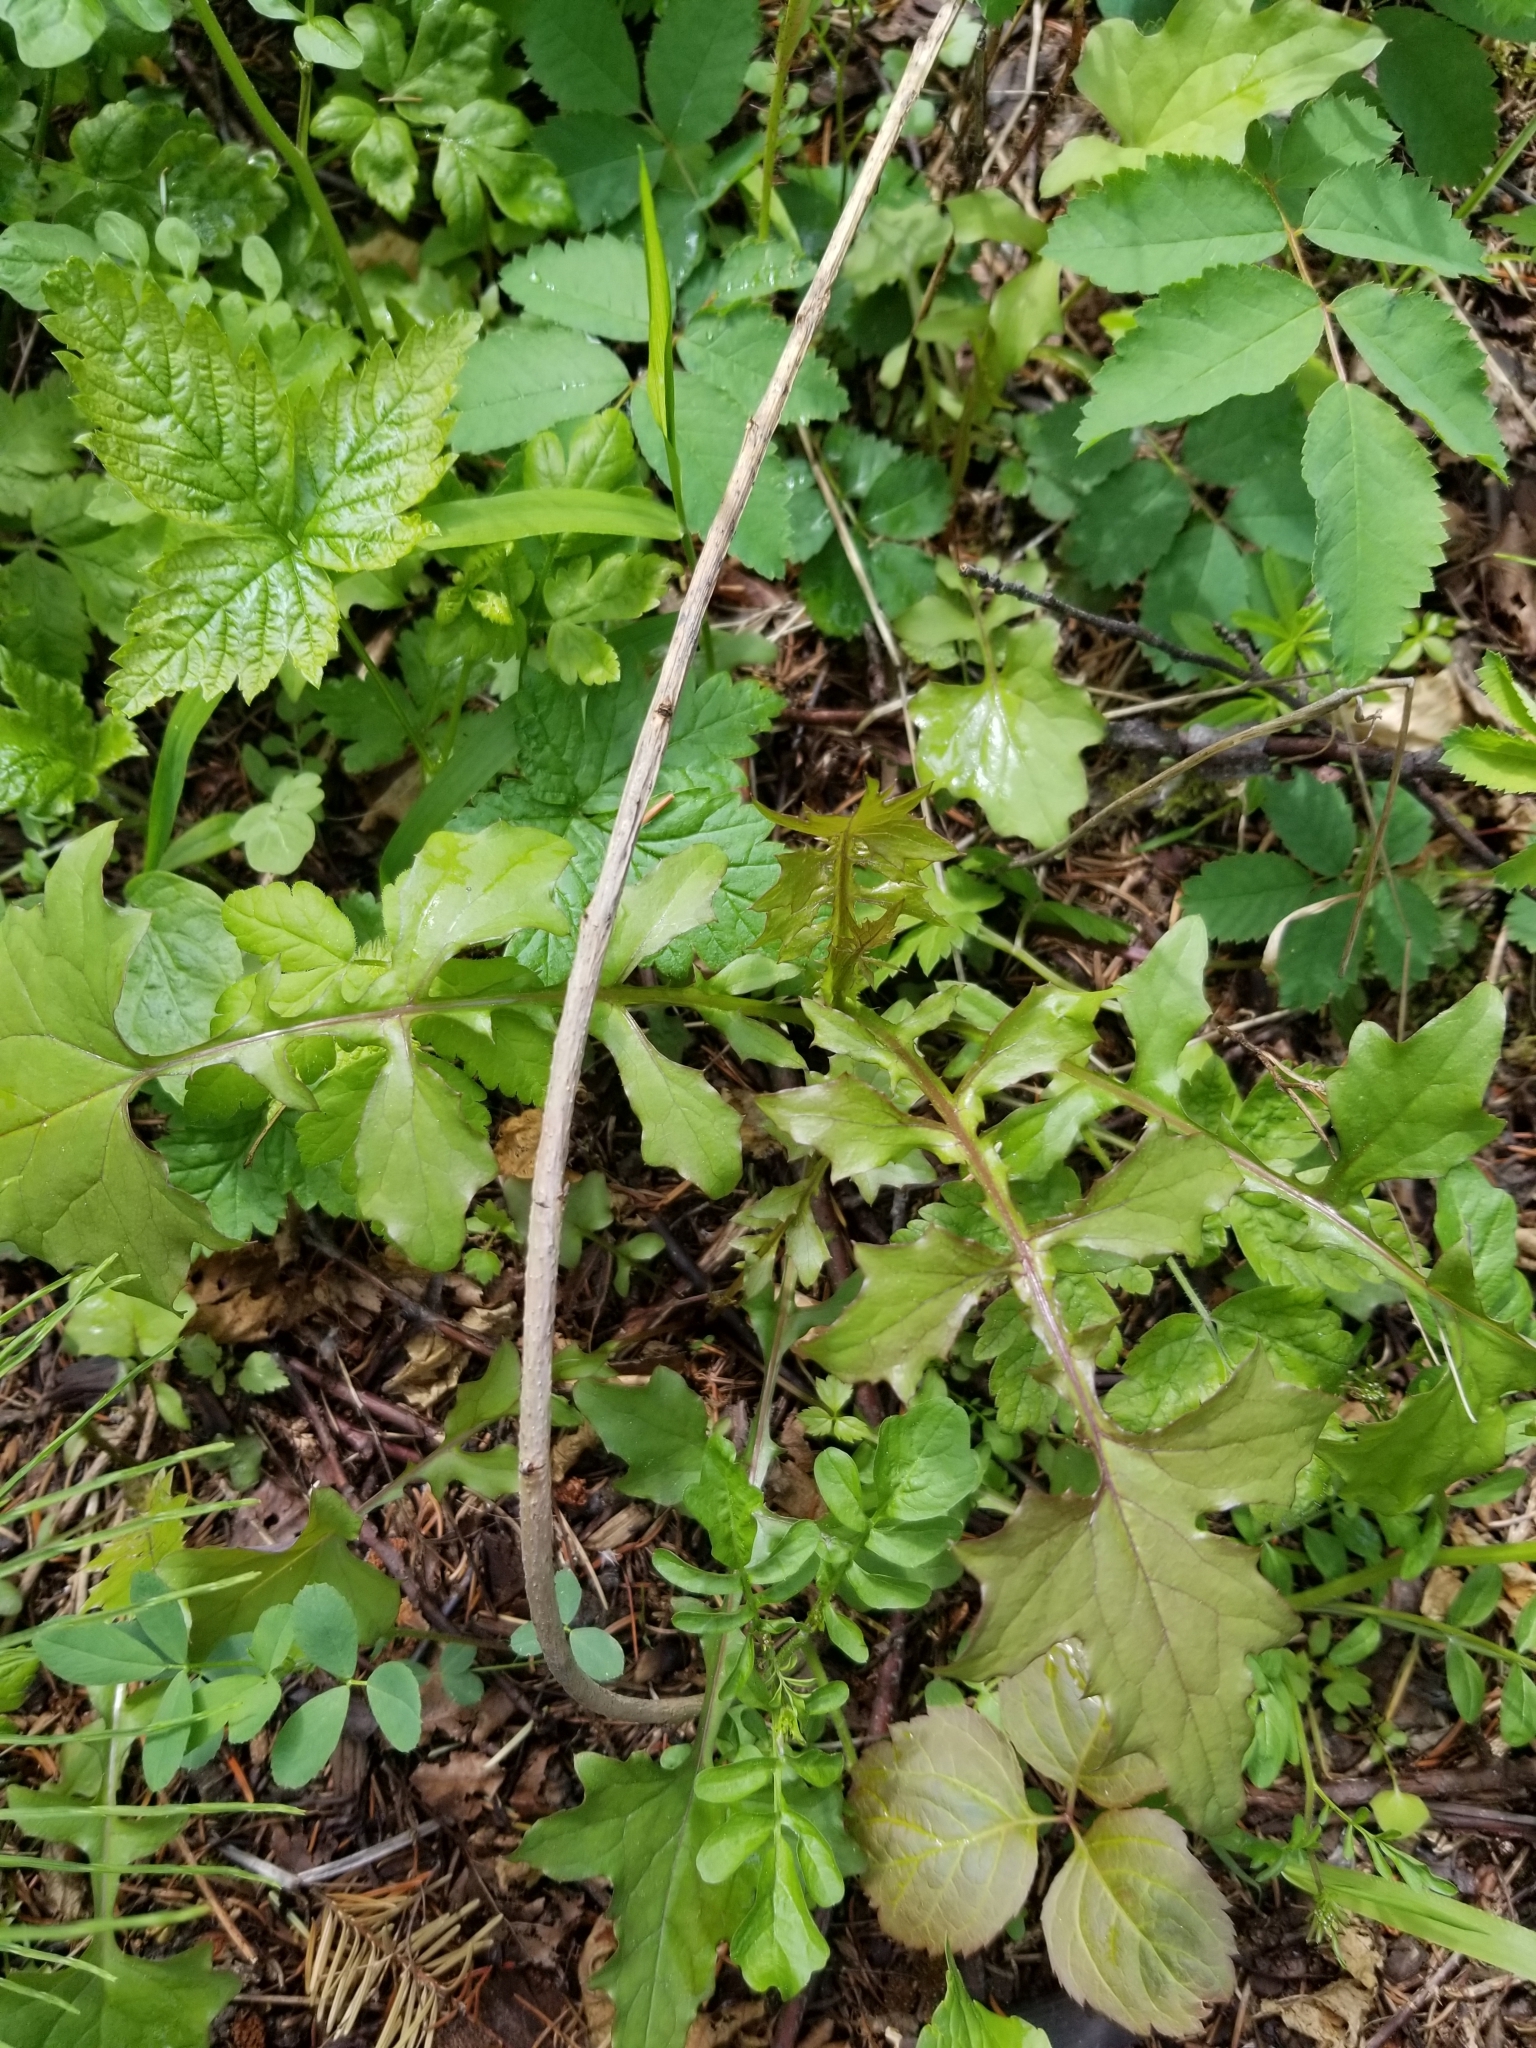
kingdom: Plantae
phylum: Tracheophyta
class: Magnoliopsida
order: Asterales
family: Asteraceae
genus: Mycelis
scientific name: Mycelis muralis
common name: Wall lettuce
